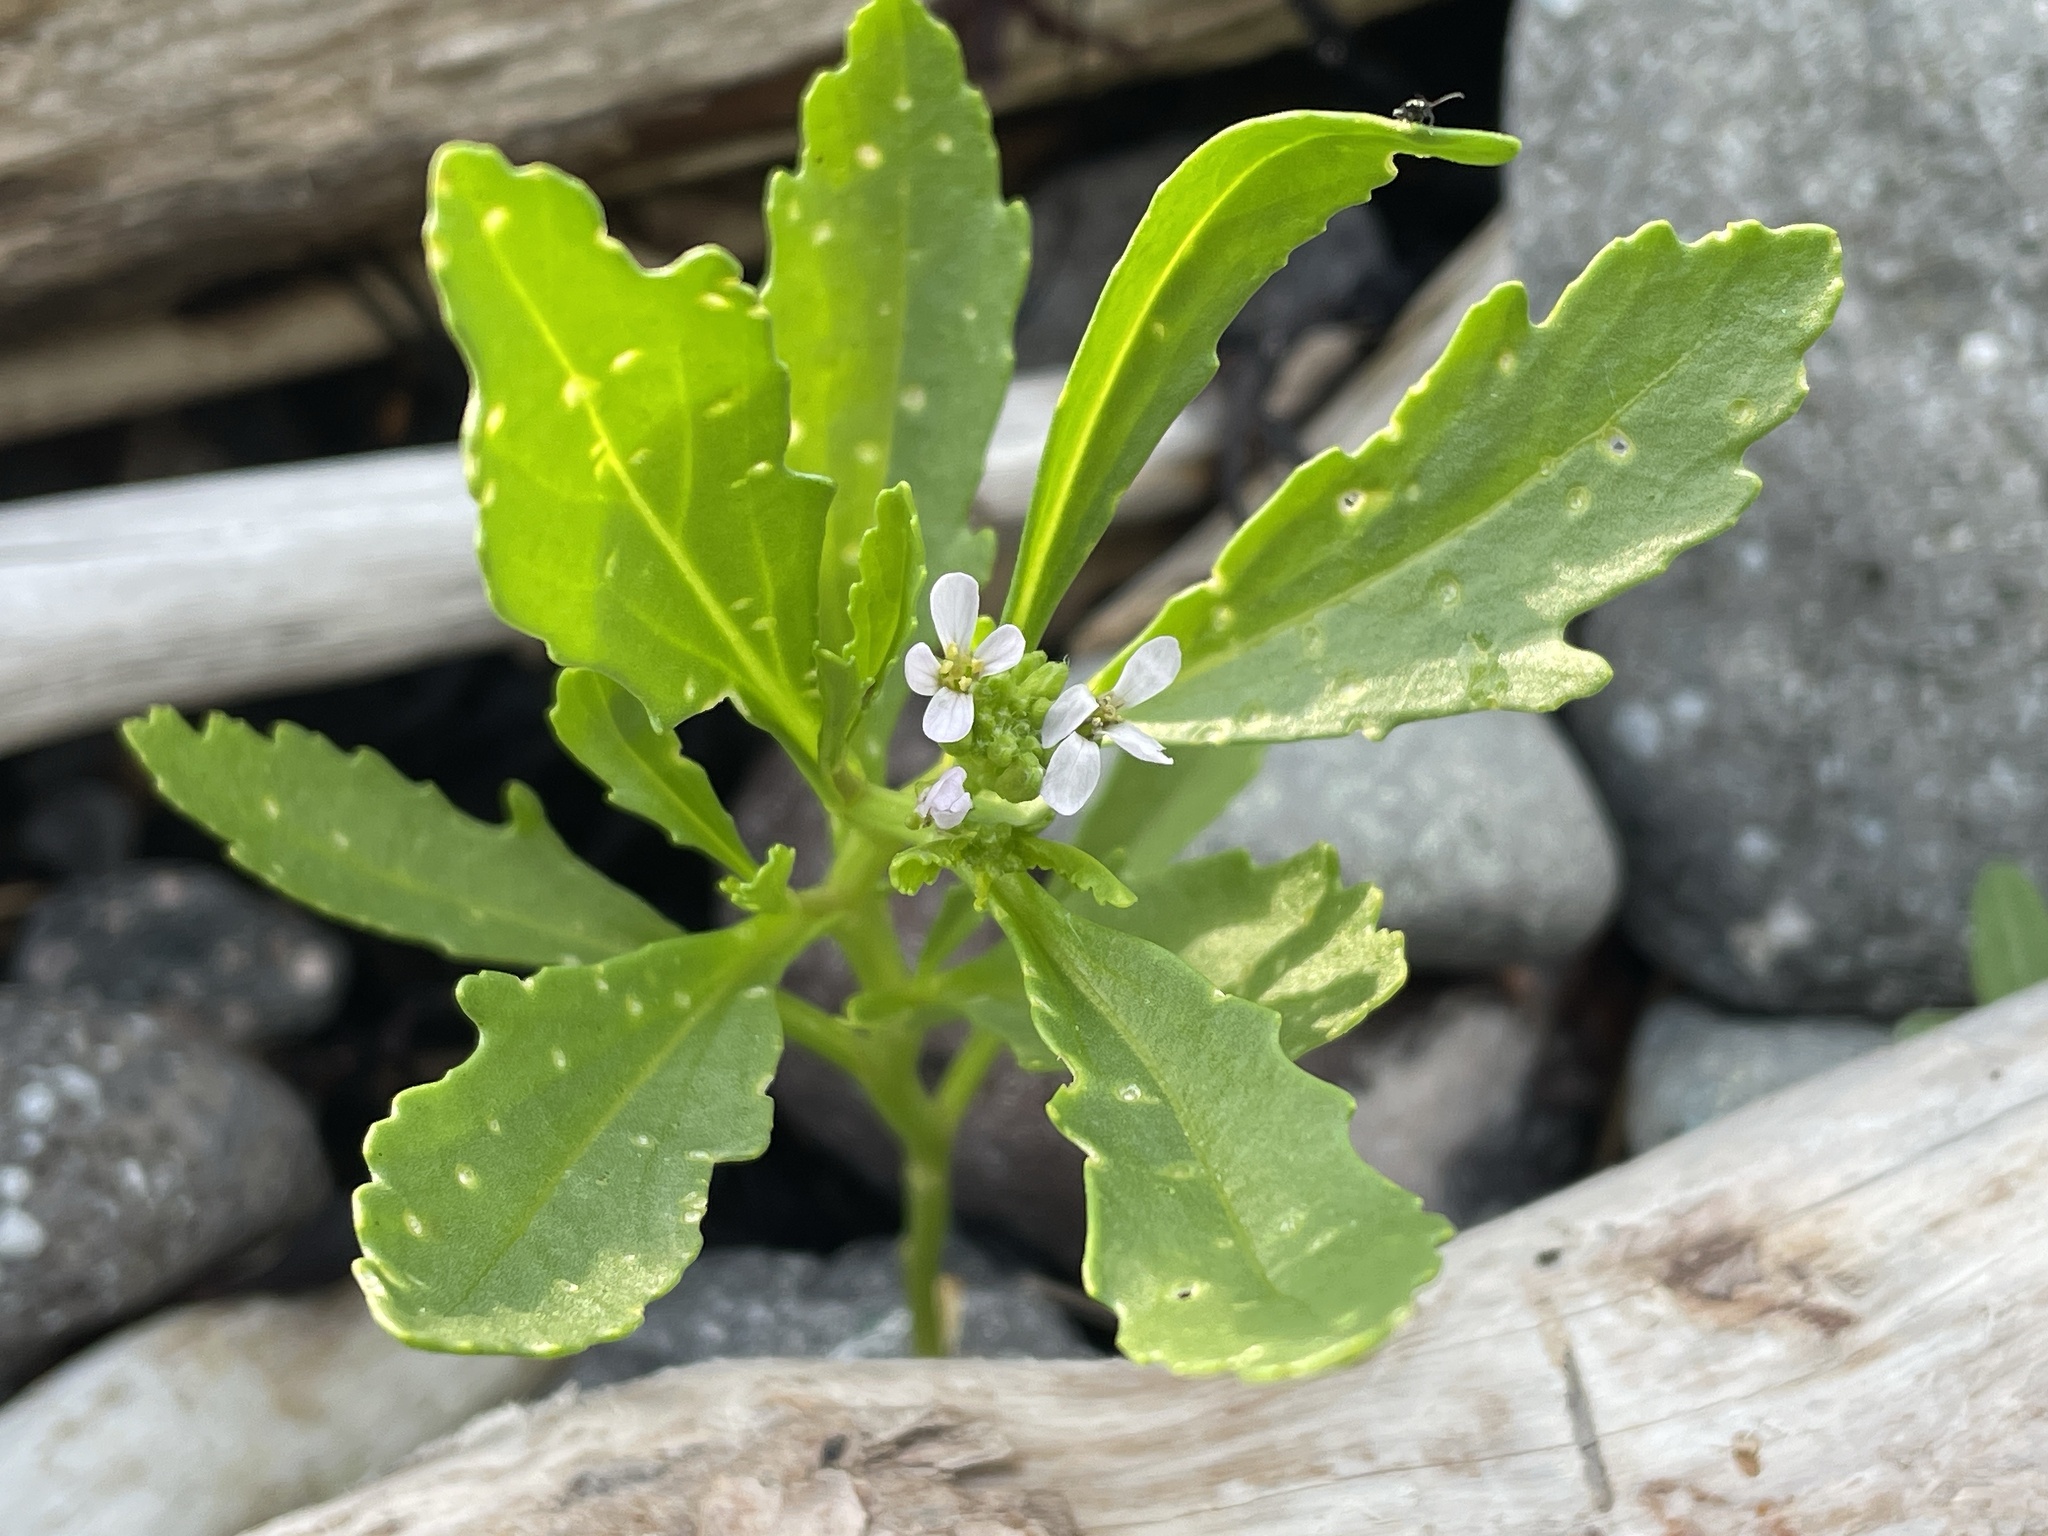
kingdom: Plantae
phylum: Tracheophyta
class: Magnoliopsida
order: Brassicales
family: Brassicaceae
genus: Cakile
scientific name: Cakile edentula
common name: American sea rocket
